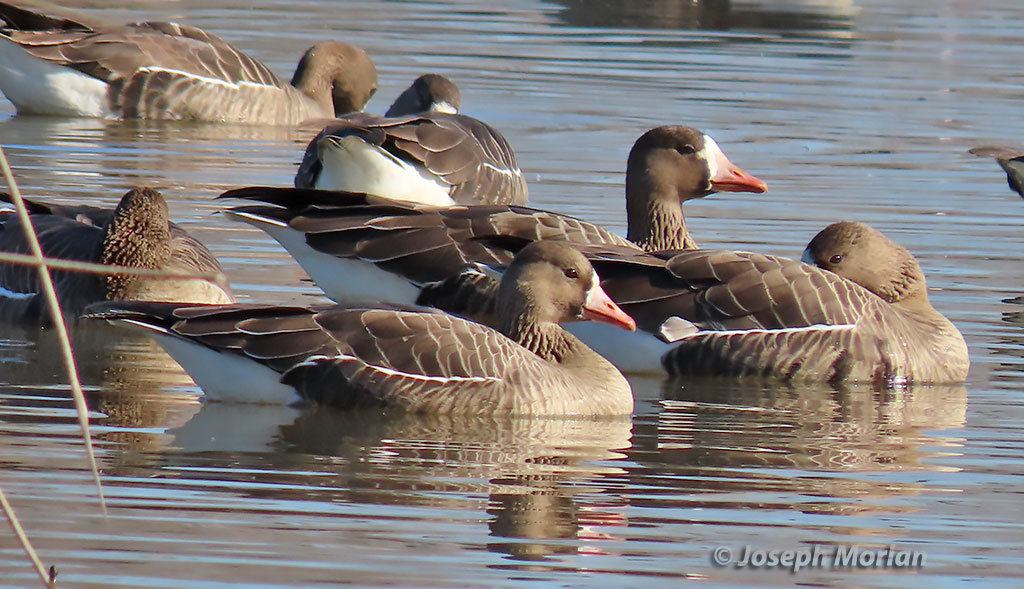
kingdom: Animalia
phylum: Chordata
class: Aves
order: Anseriformes
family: Anatidae
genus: Anser
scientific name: Anser albifrons
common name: Greater white-fronted goose
